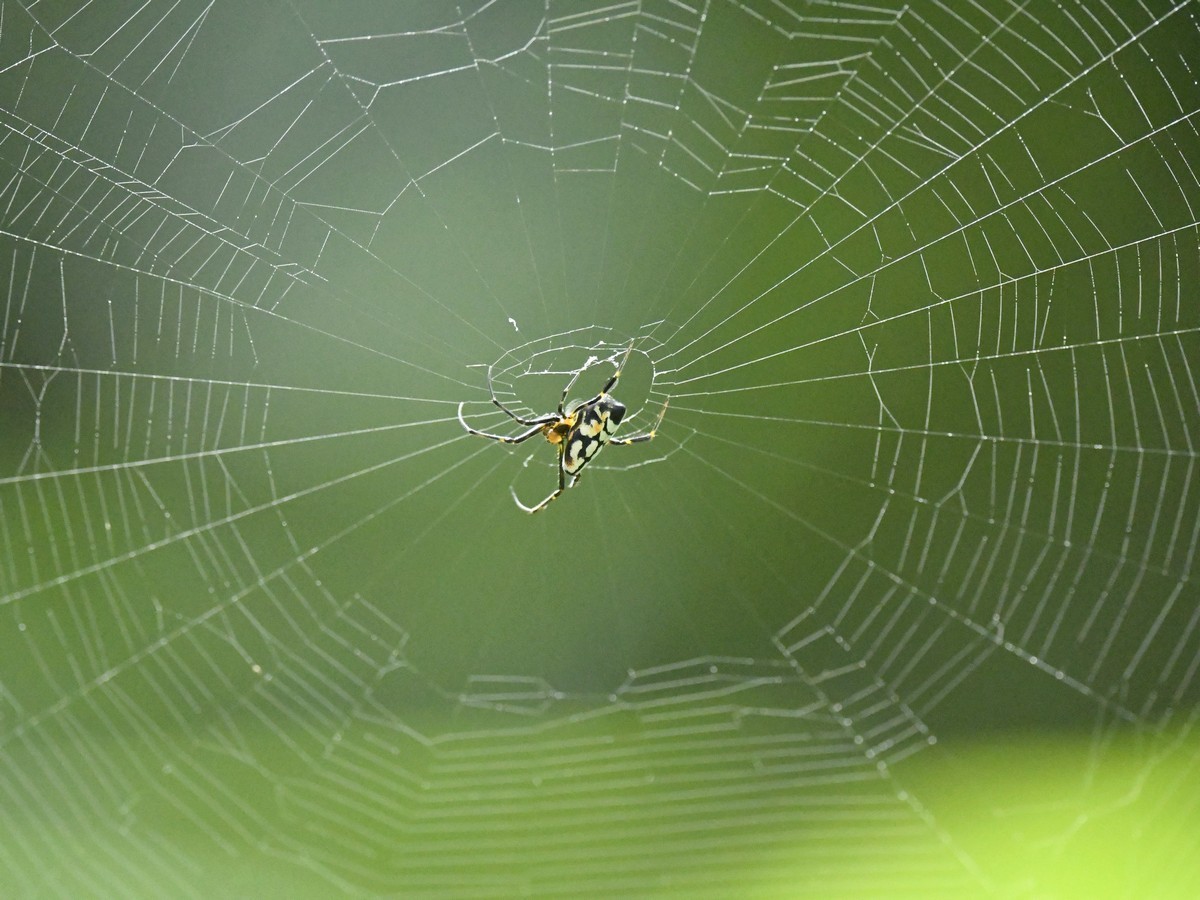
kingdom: Animalia
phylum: Arthropoda
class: Arachnida
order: Araneae
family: Tetragnathidae
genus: Leucauge
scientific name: Leucauge fastigata
